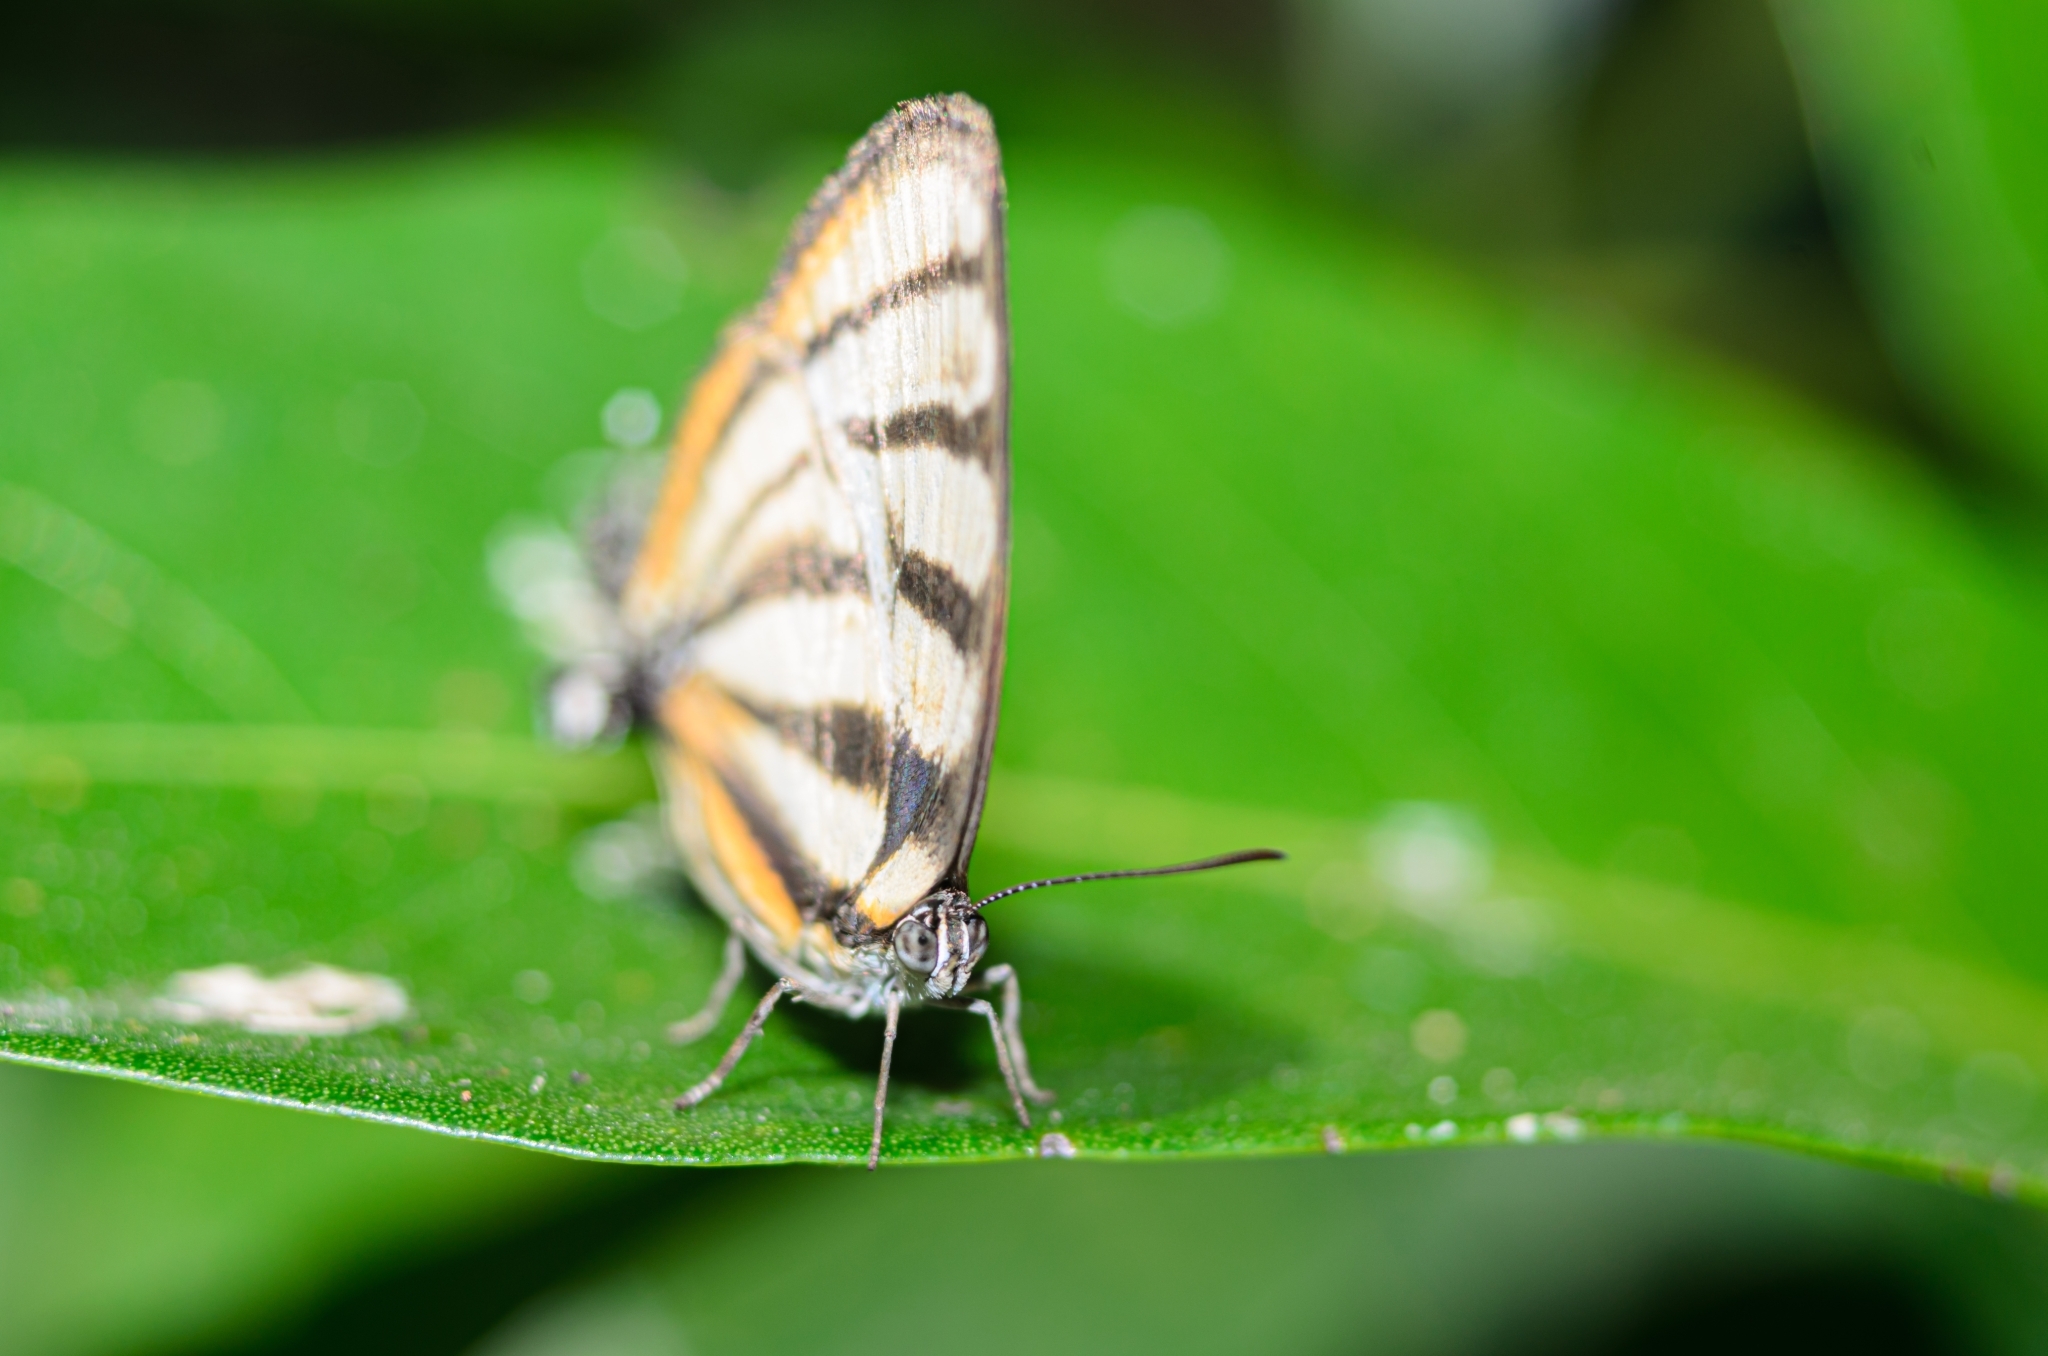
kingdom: Animalia
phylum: Arthropoda
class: Insecta
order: Lepidoptera
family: Lycaenidae
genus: Arawacus
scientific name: Arawacus separata
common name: Separated stripestreak
